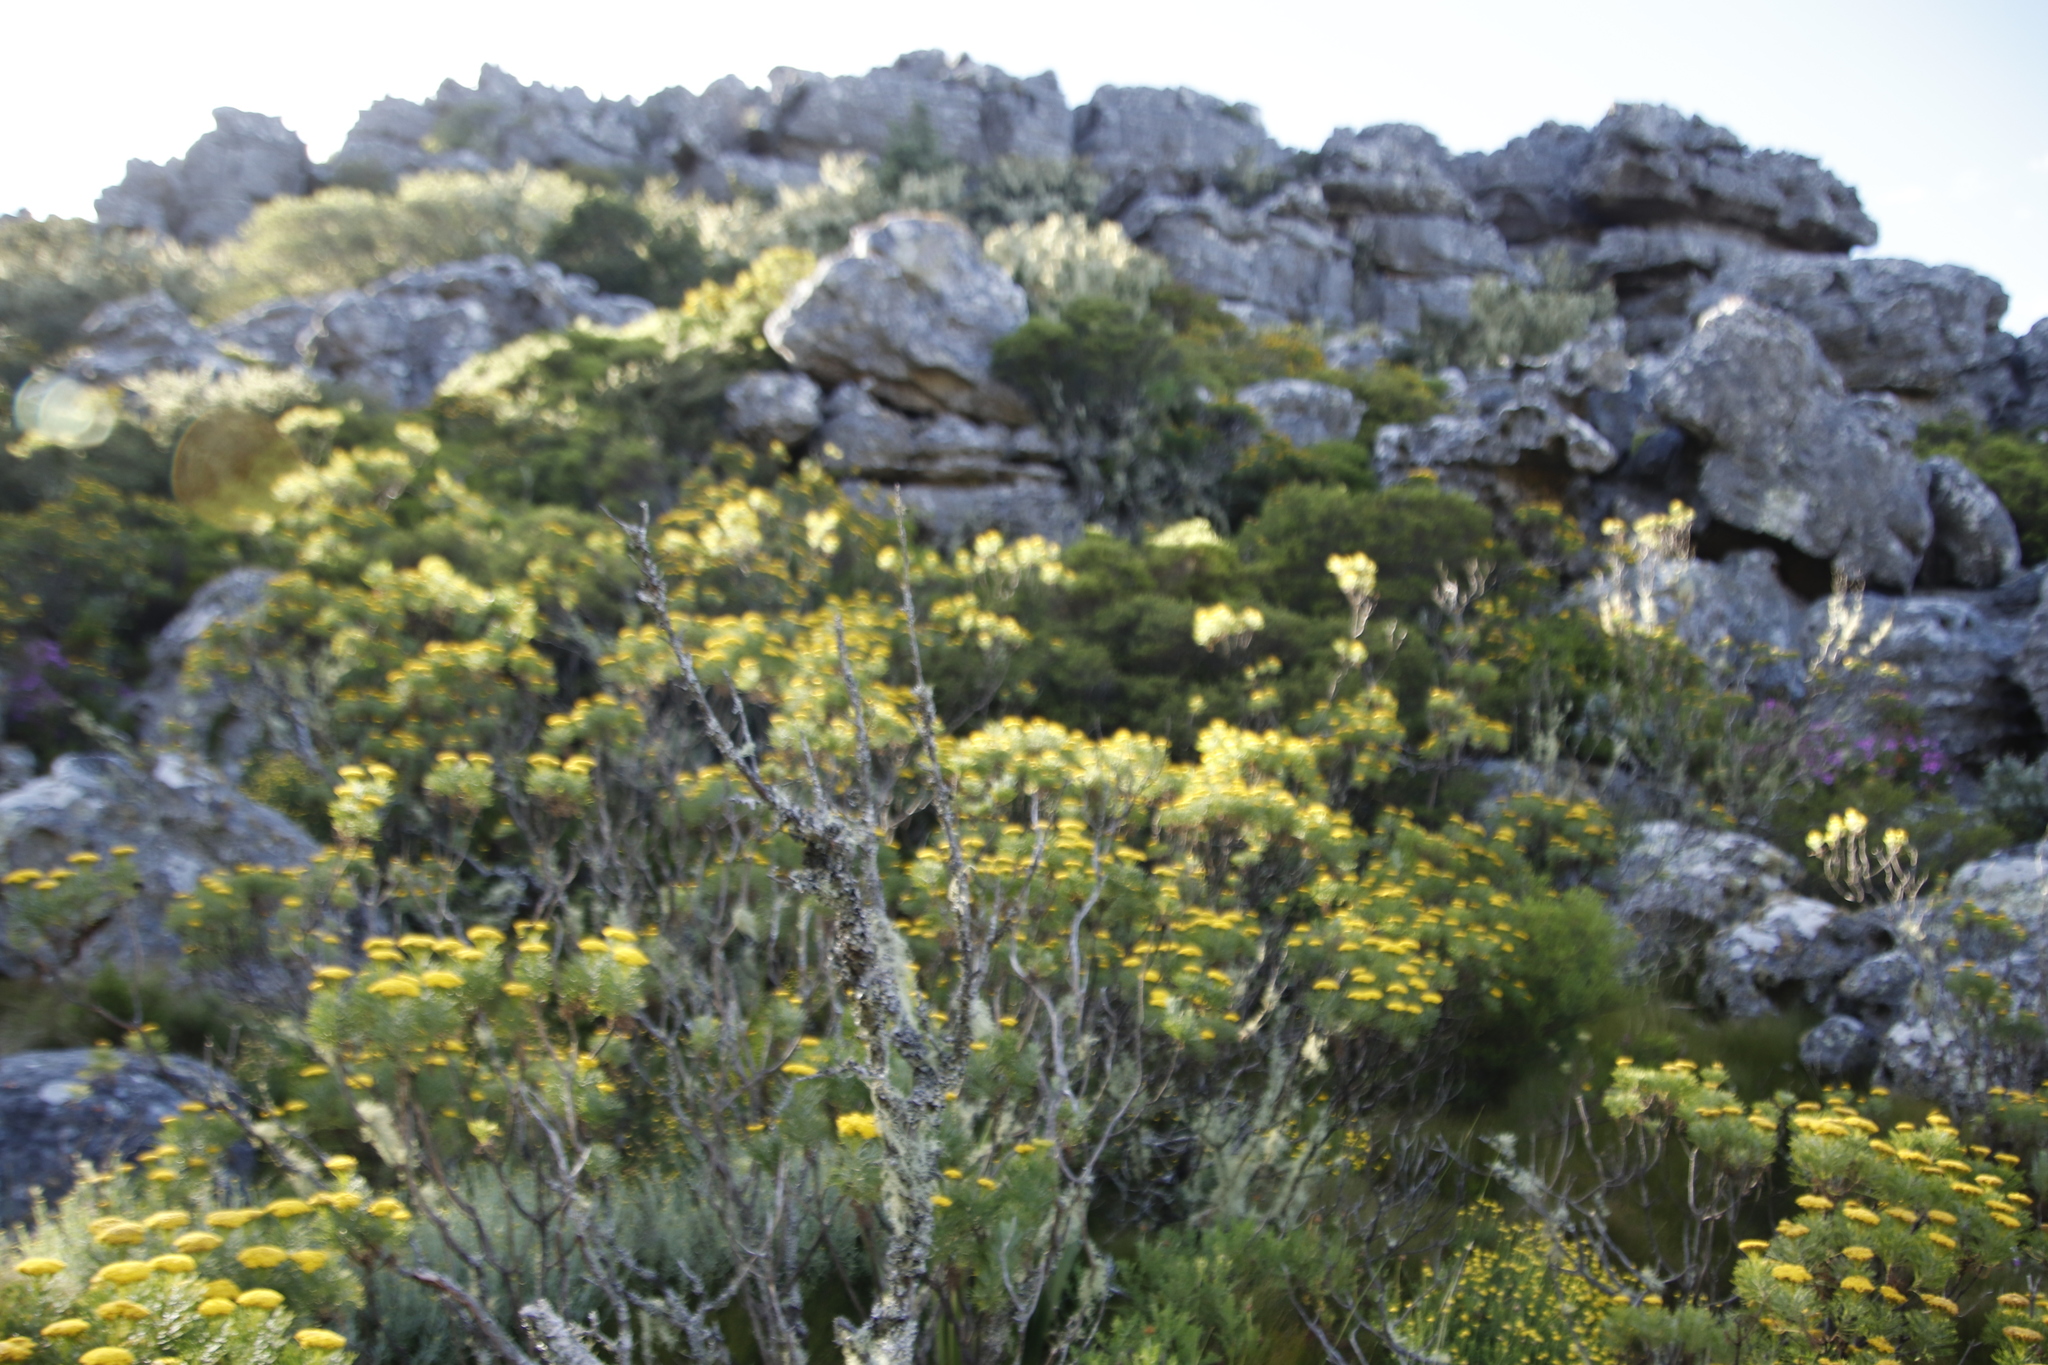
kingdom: Plantae
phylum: Tracheophyta
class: Magnoliopsida
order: Asterales
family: Asteraceae
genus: Hymenolepis
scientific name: Hymenolepis crithmifolia
